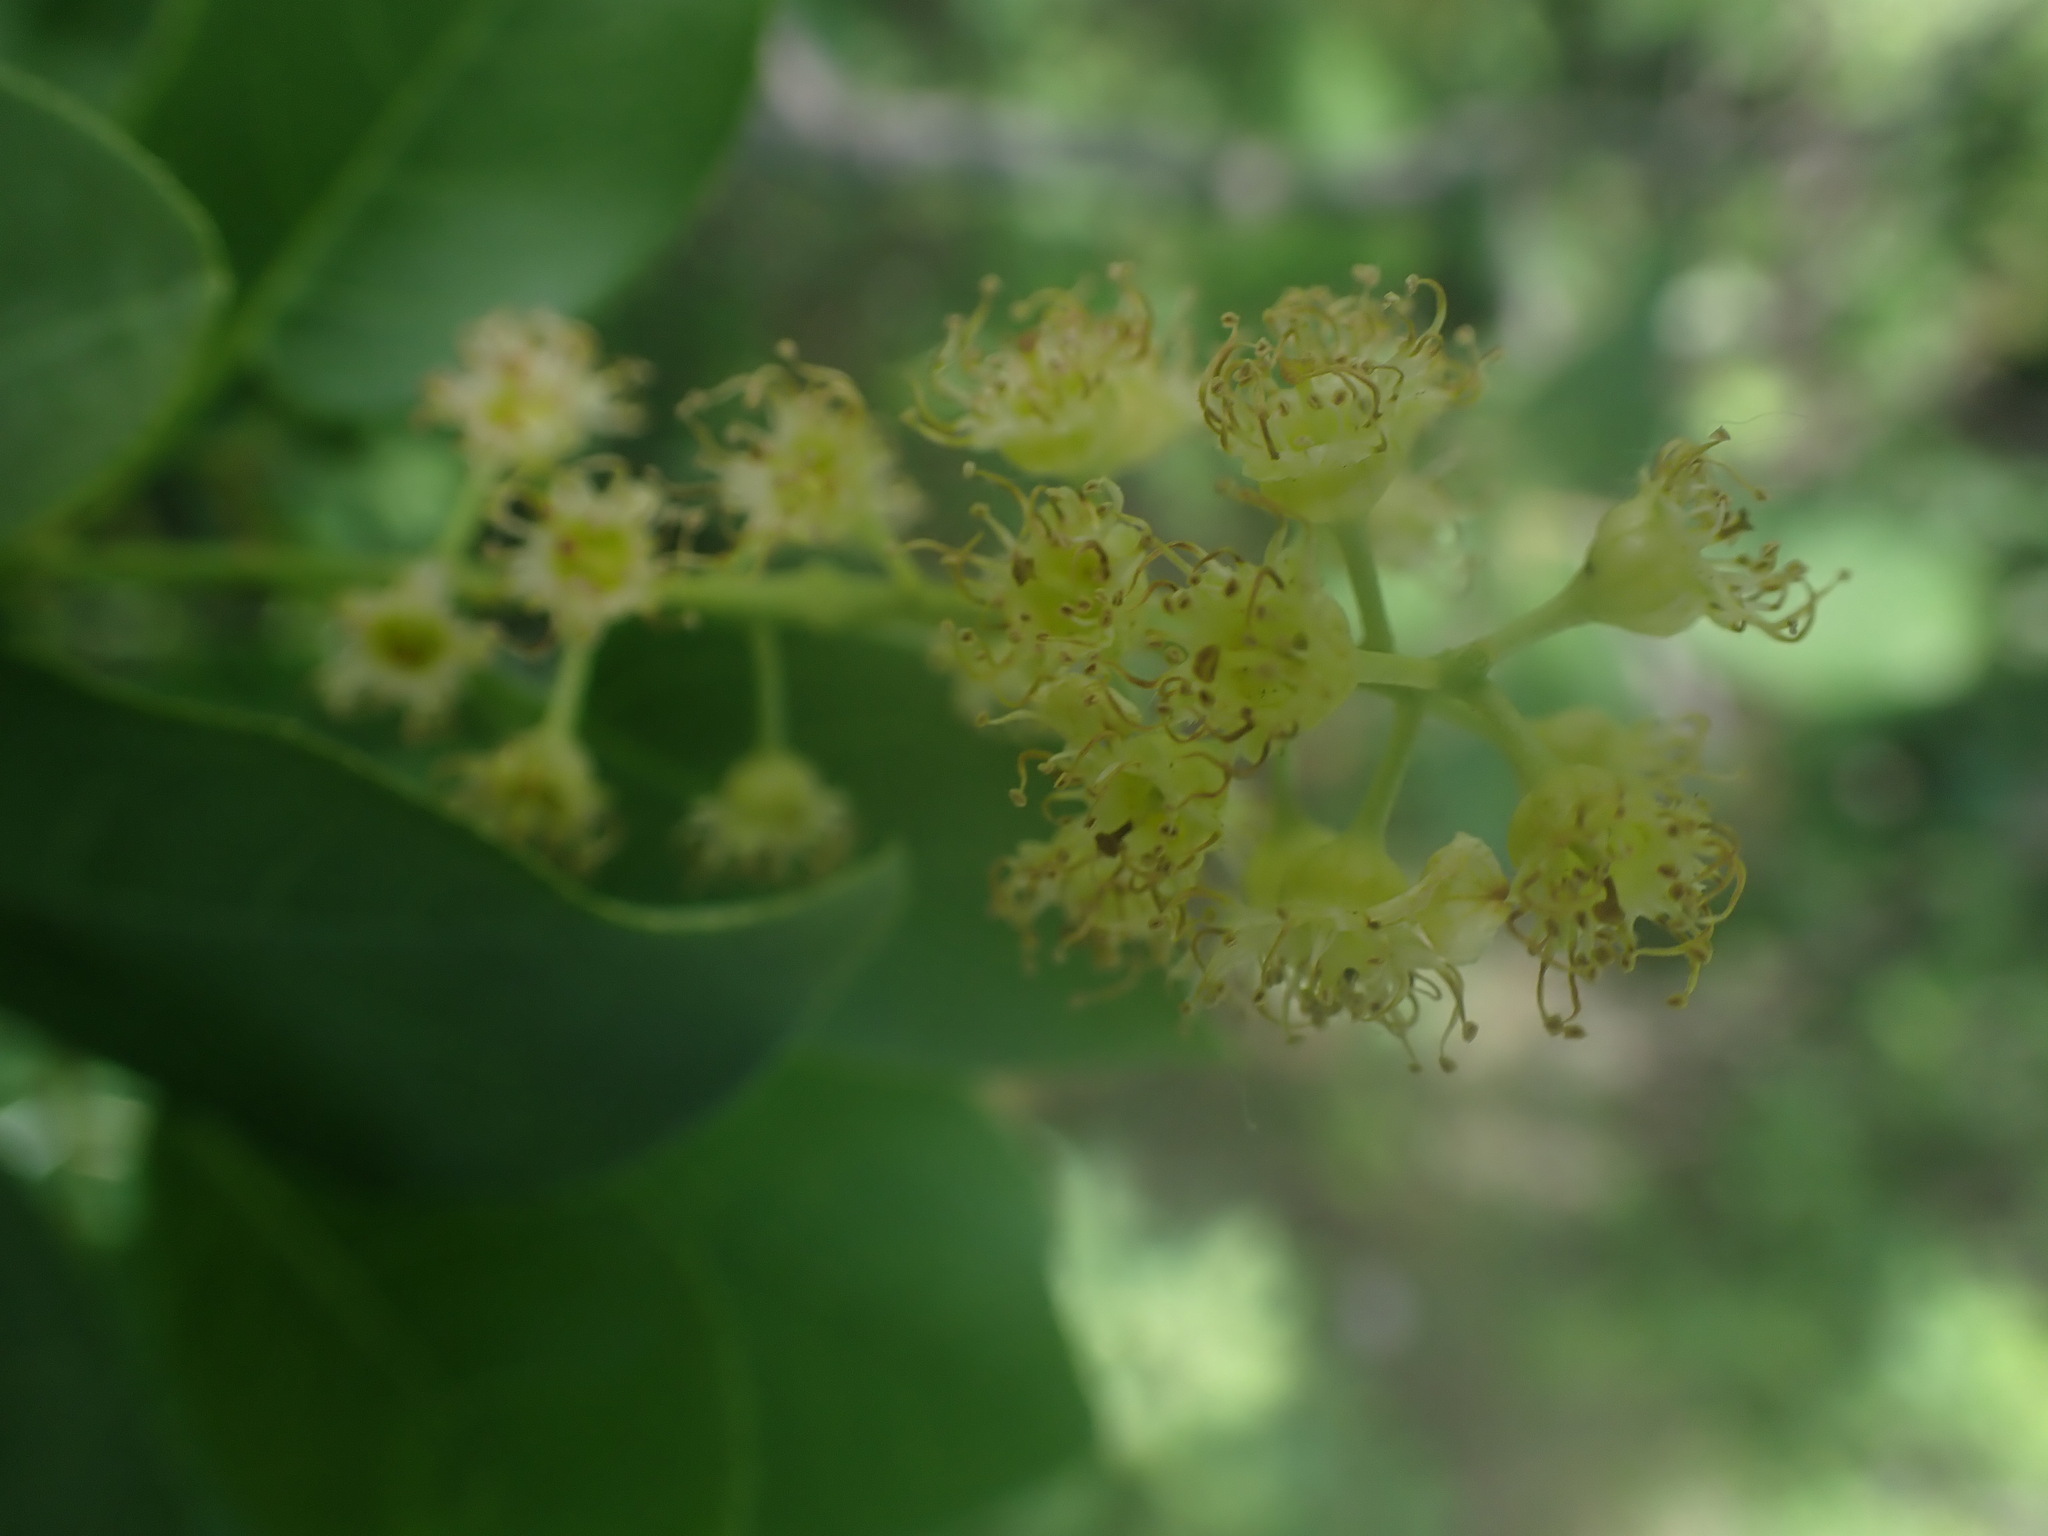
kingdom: Plantae
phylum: Tracheophyta
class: Magnoliopsida
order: Rosales
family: Rosaceae
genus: Prunus
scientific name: Prunus virginiana
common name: Chokecherry
